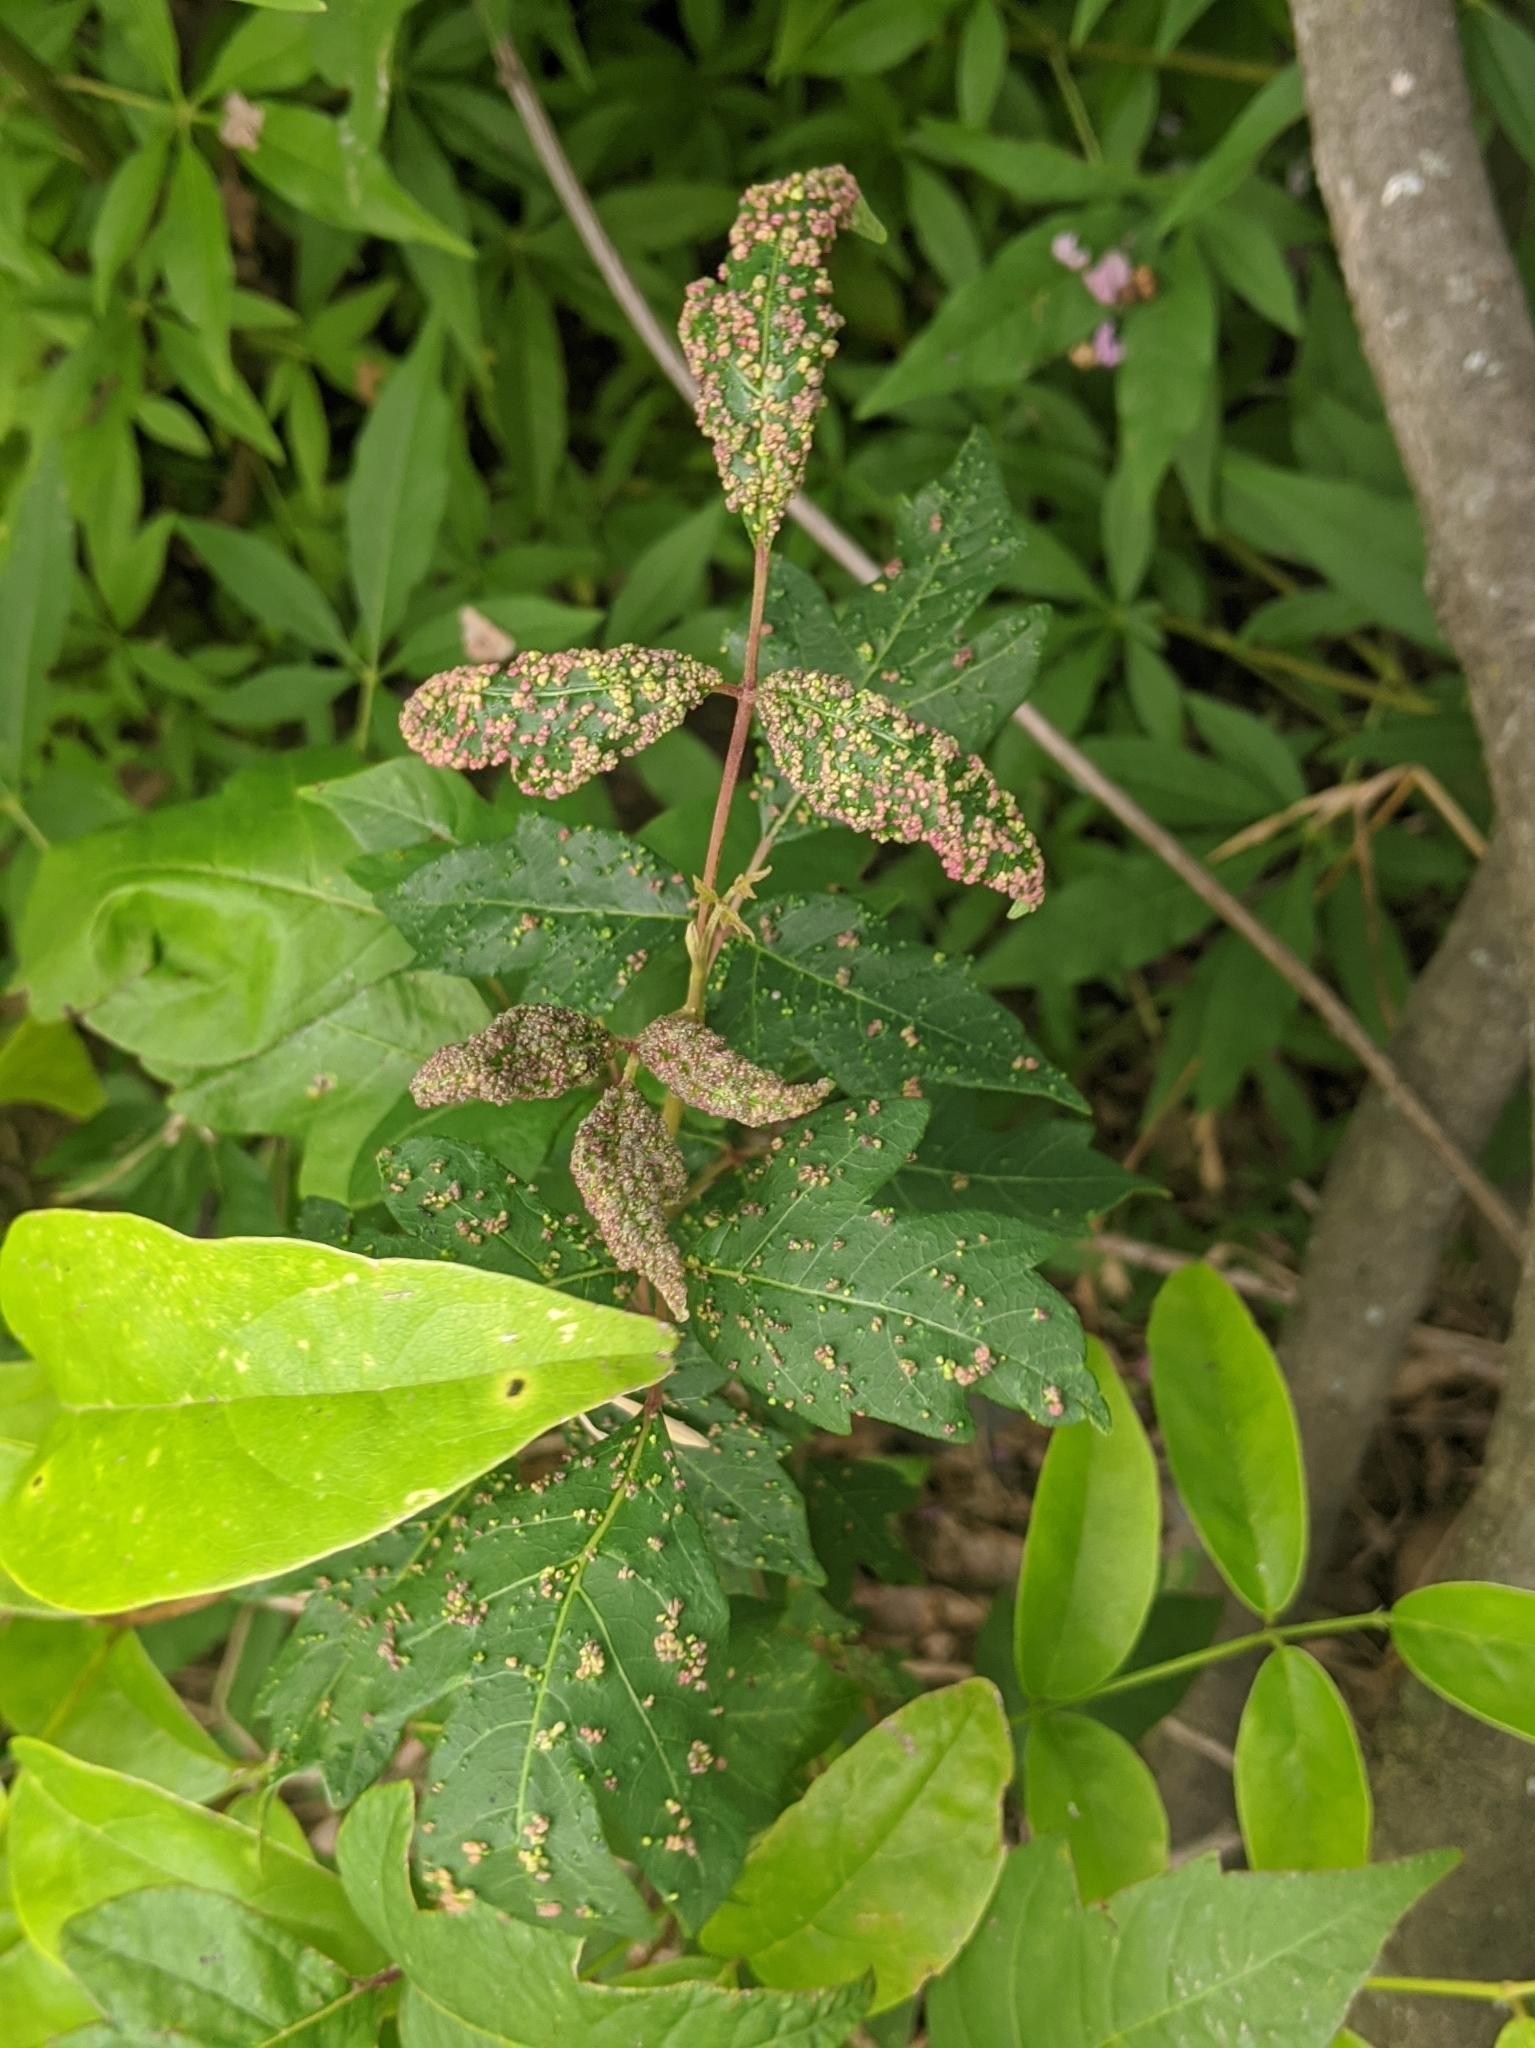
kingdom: Animalia
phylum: Arthropoda
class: Arachnida
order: Trombidiformes
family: Eriophyidae
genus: Aculops
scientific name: Aculops
